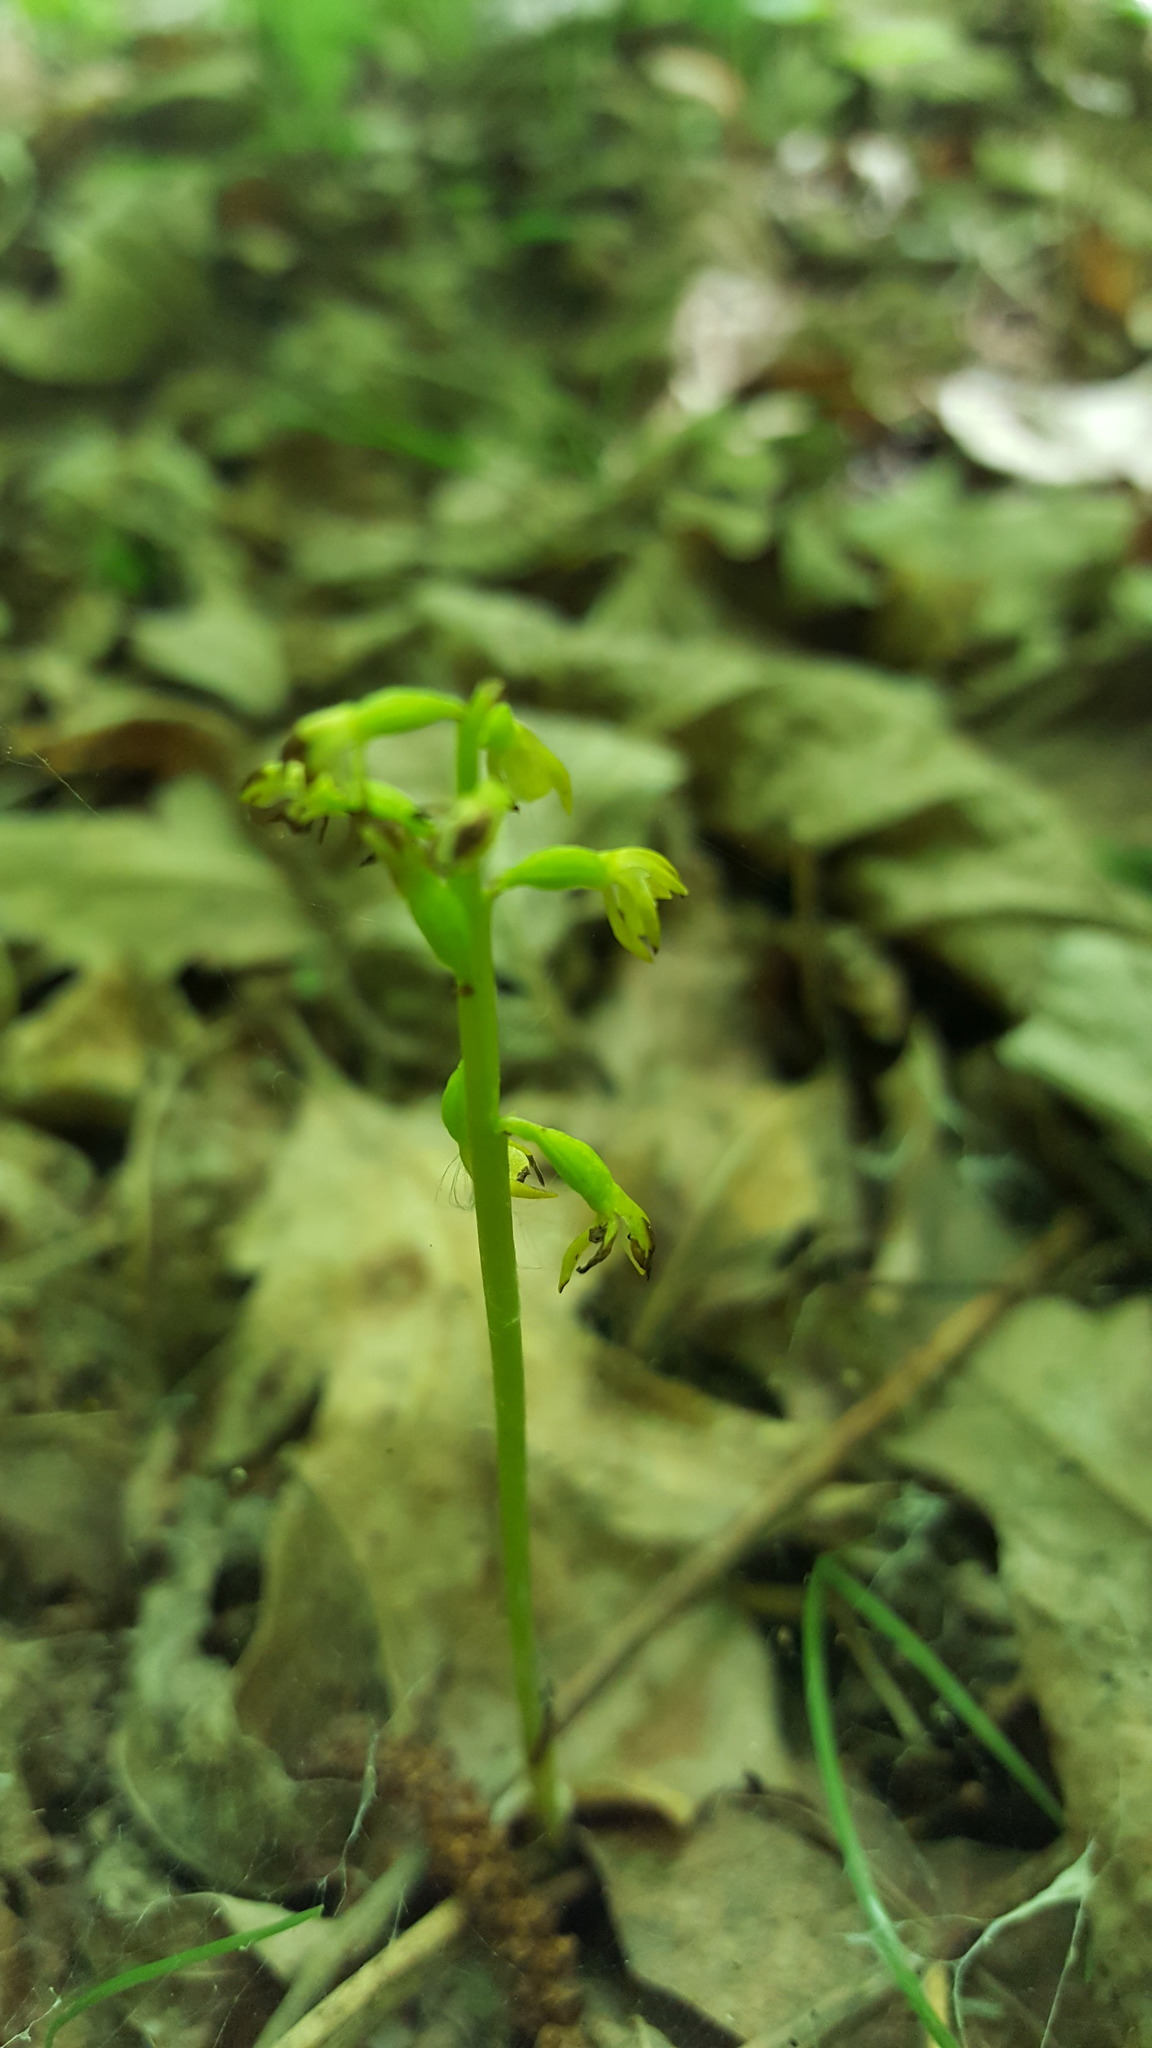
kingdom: Plantae
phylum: Tracheophyta
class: Liliopsida
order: Asparagales
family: Orchidaceae
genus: Corallorhiza
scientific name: Corallorhiza trifida
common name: Yellow coralroot
